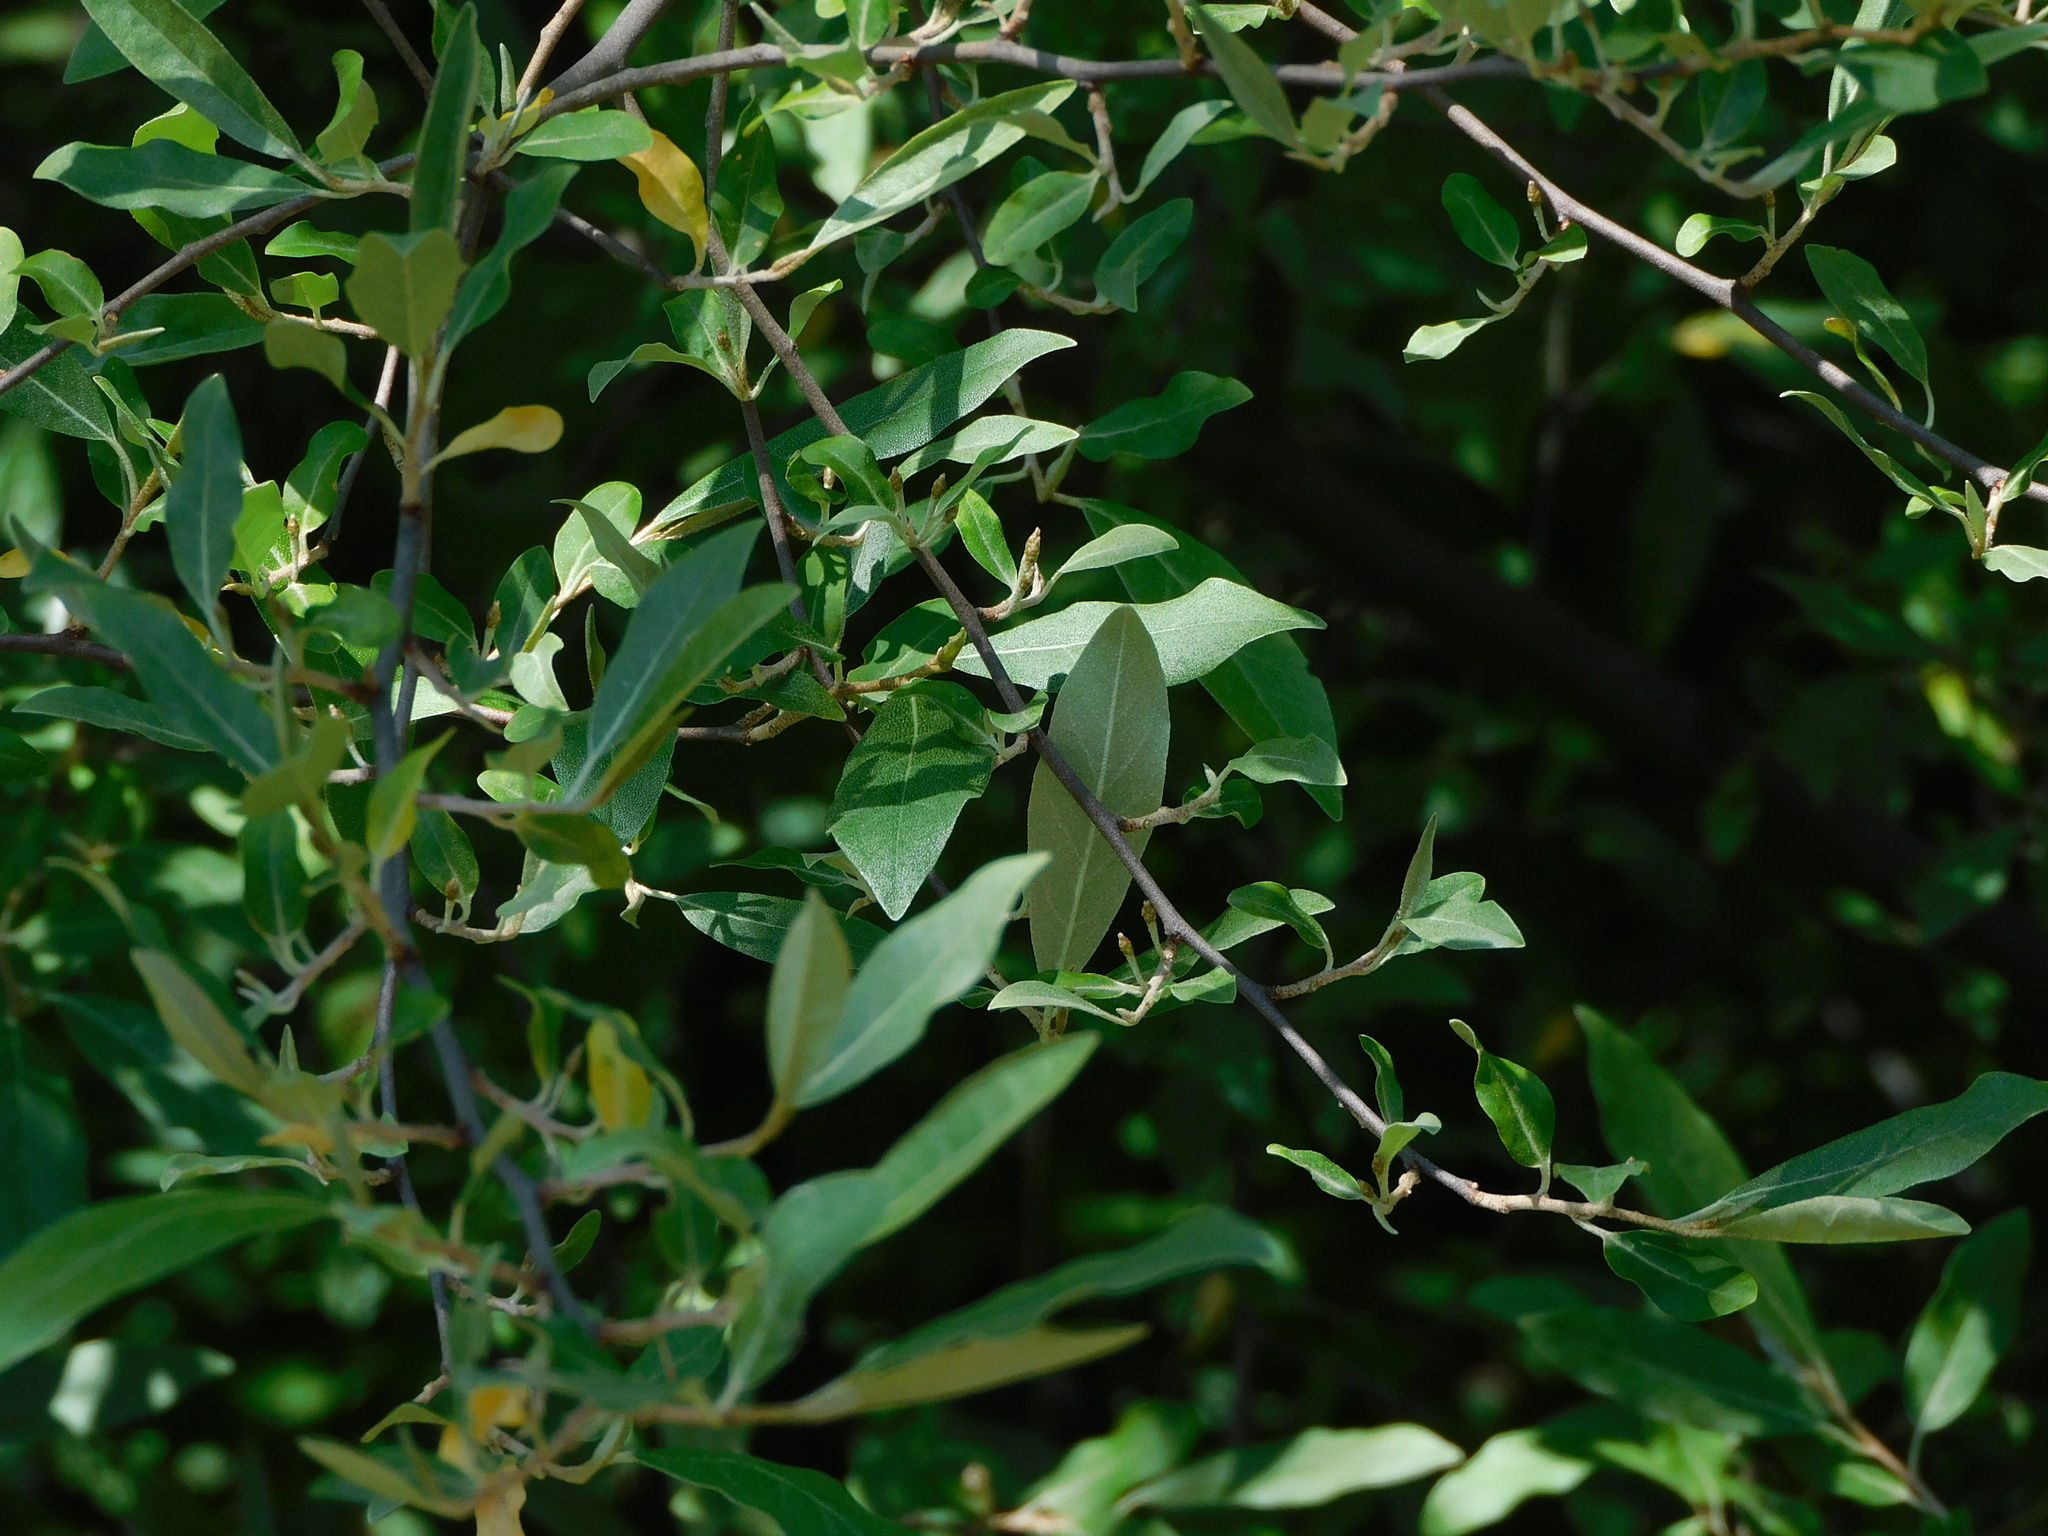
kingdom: Plantae
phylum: Tracheophyta
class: Magnoliopsida
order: Rosales
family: Elaeagnaceae
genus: Elaeagnus
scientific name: Elaeagnus umbellata
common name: Autumn olive
